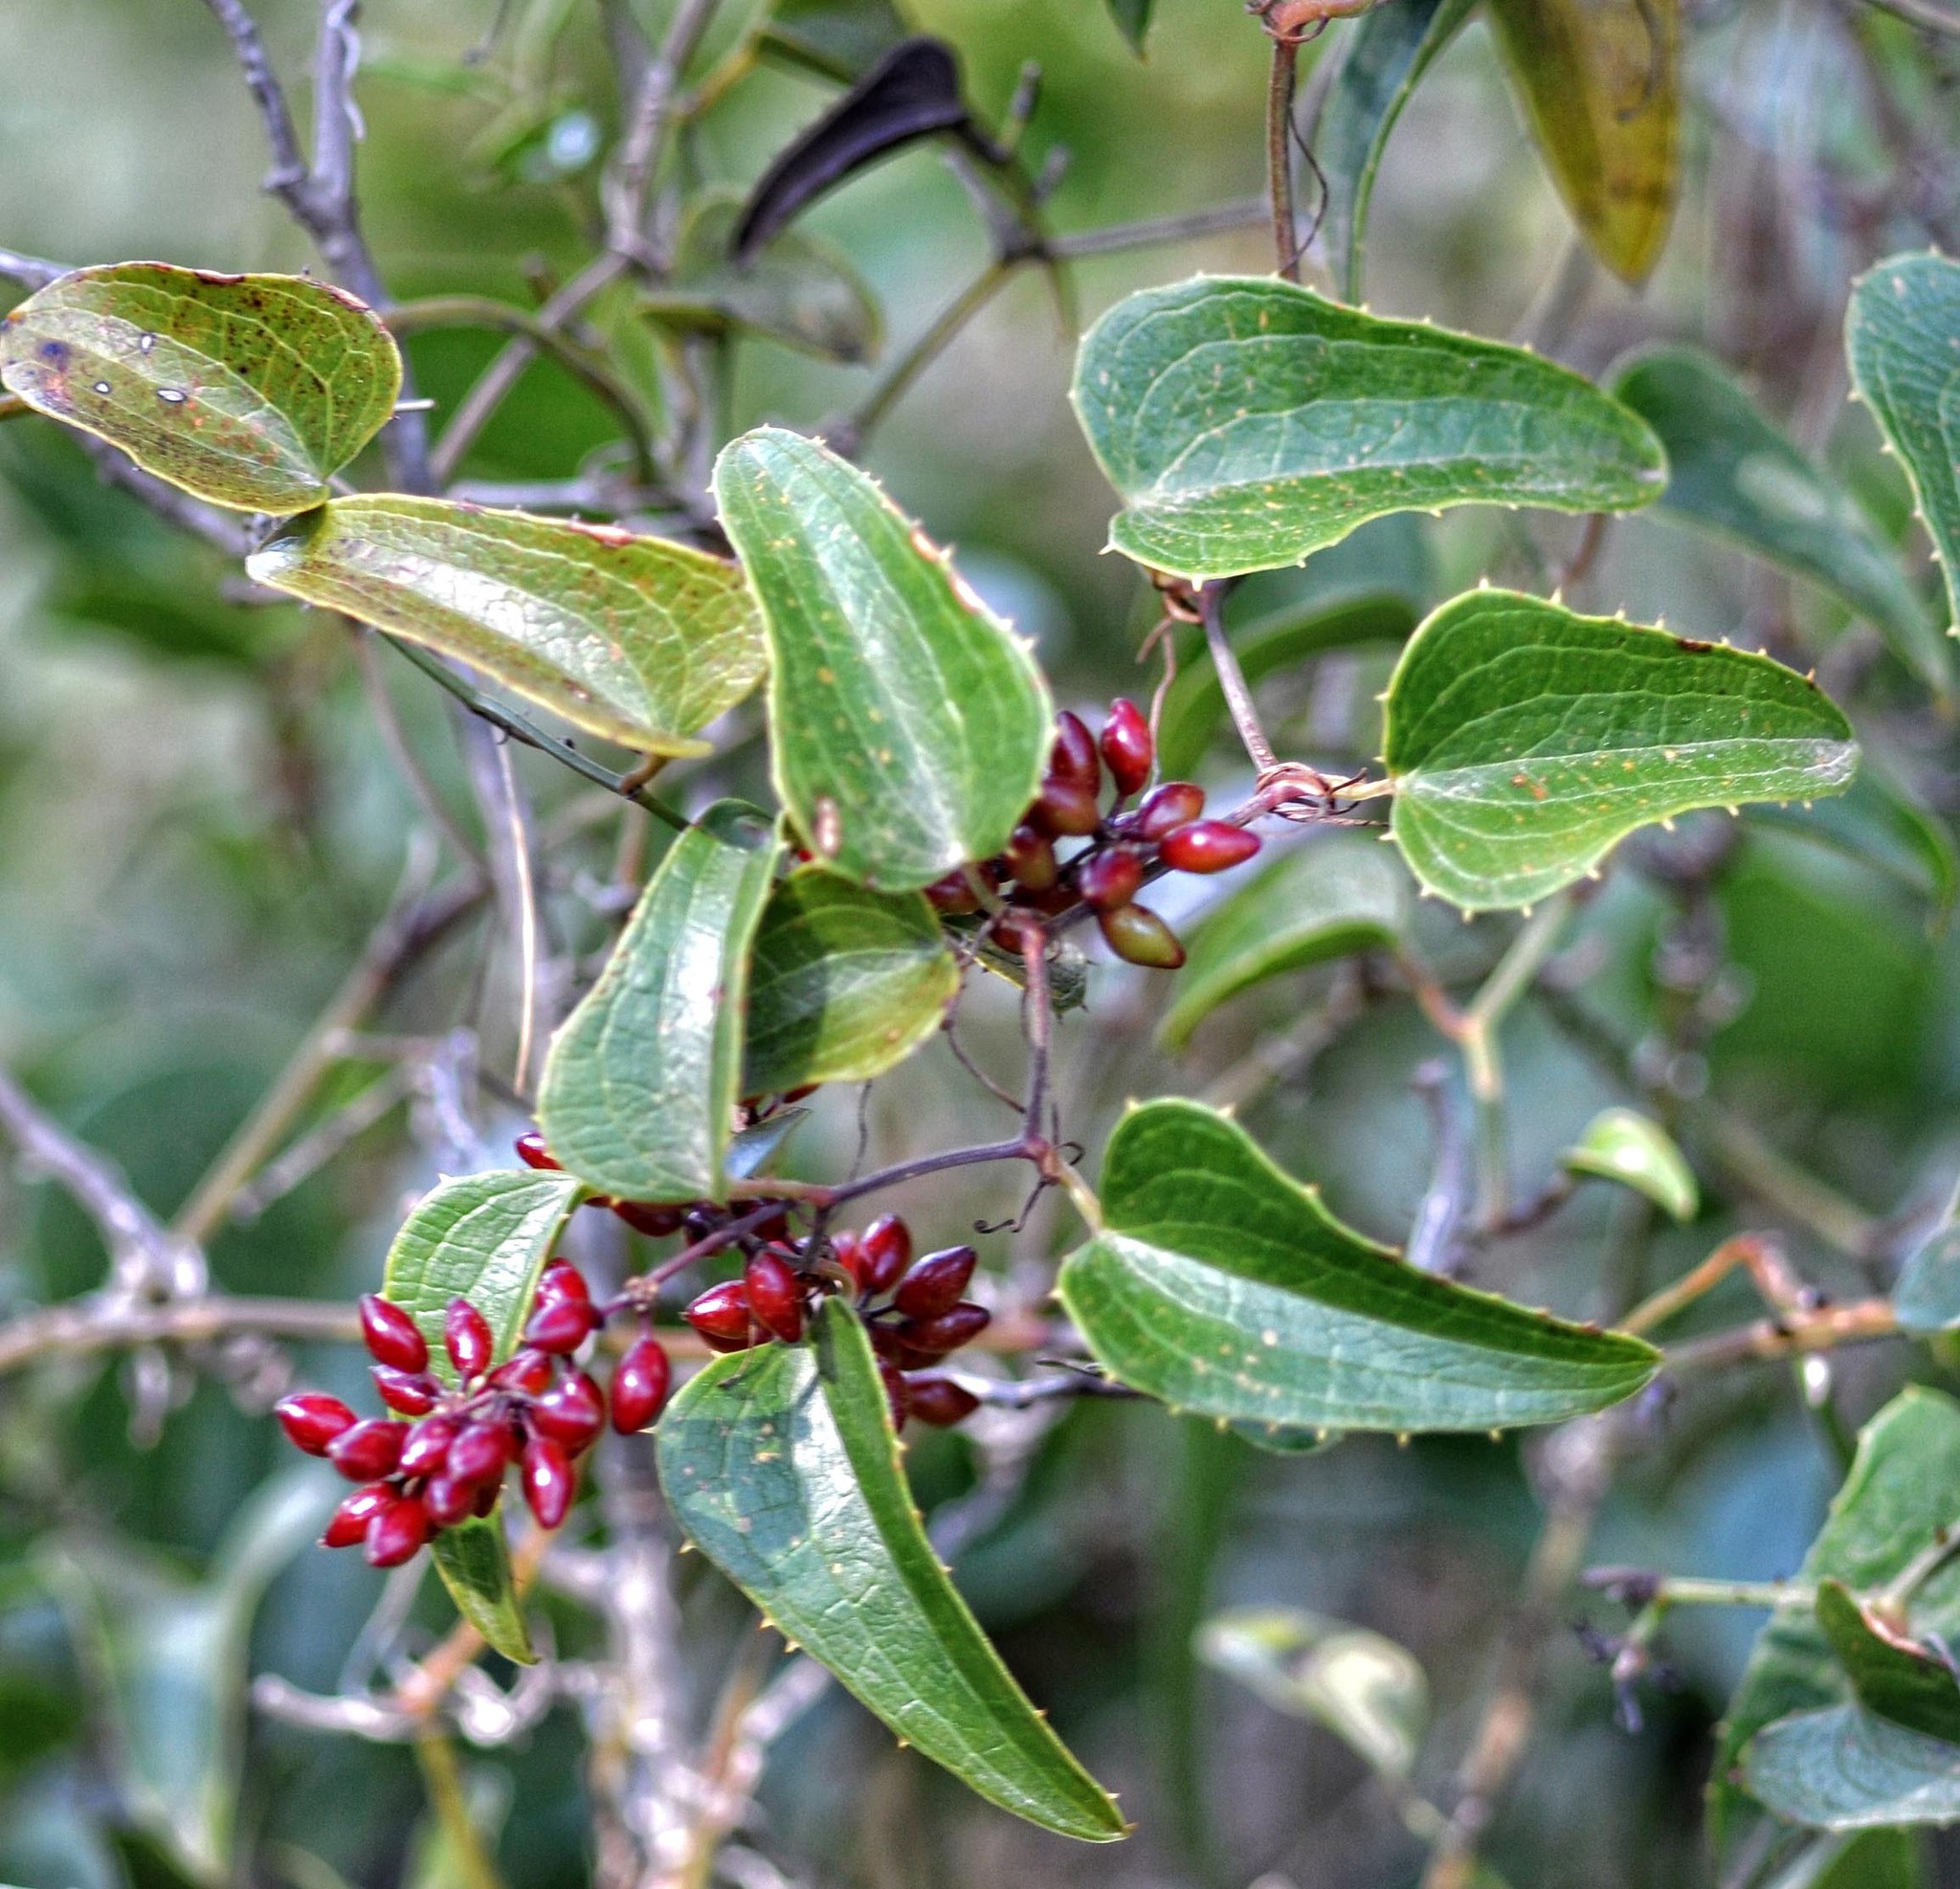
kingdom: Plantae
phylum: Tracheophyta
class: Liliopsida
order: Liliales
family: Smilacaceae
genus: Smilax
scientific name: Smilax aspera
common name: Common smilax
